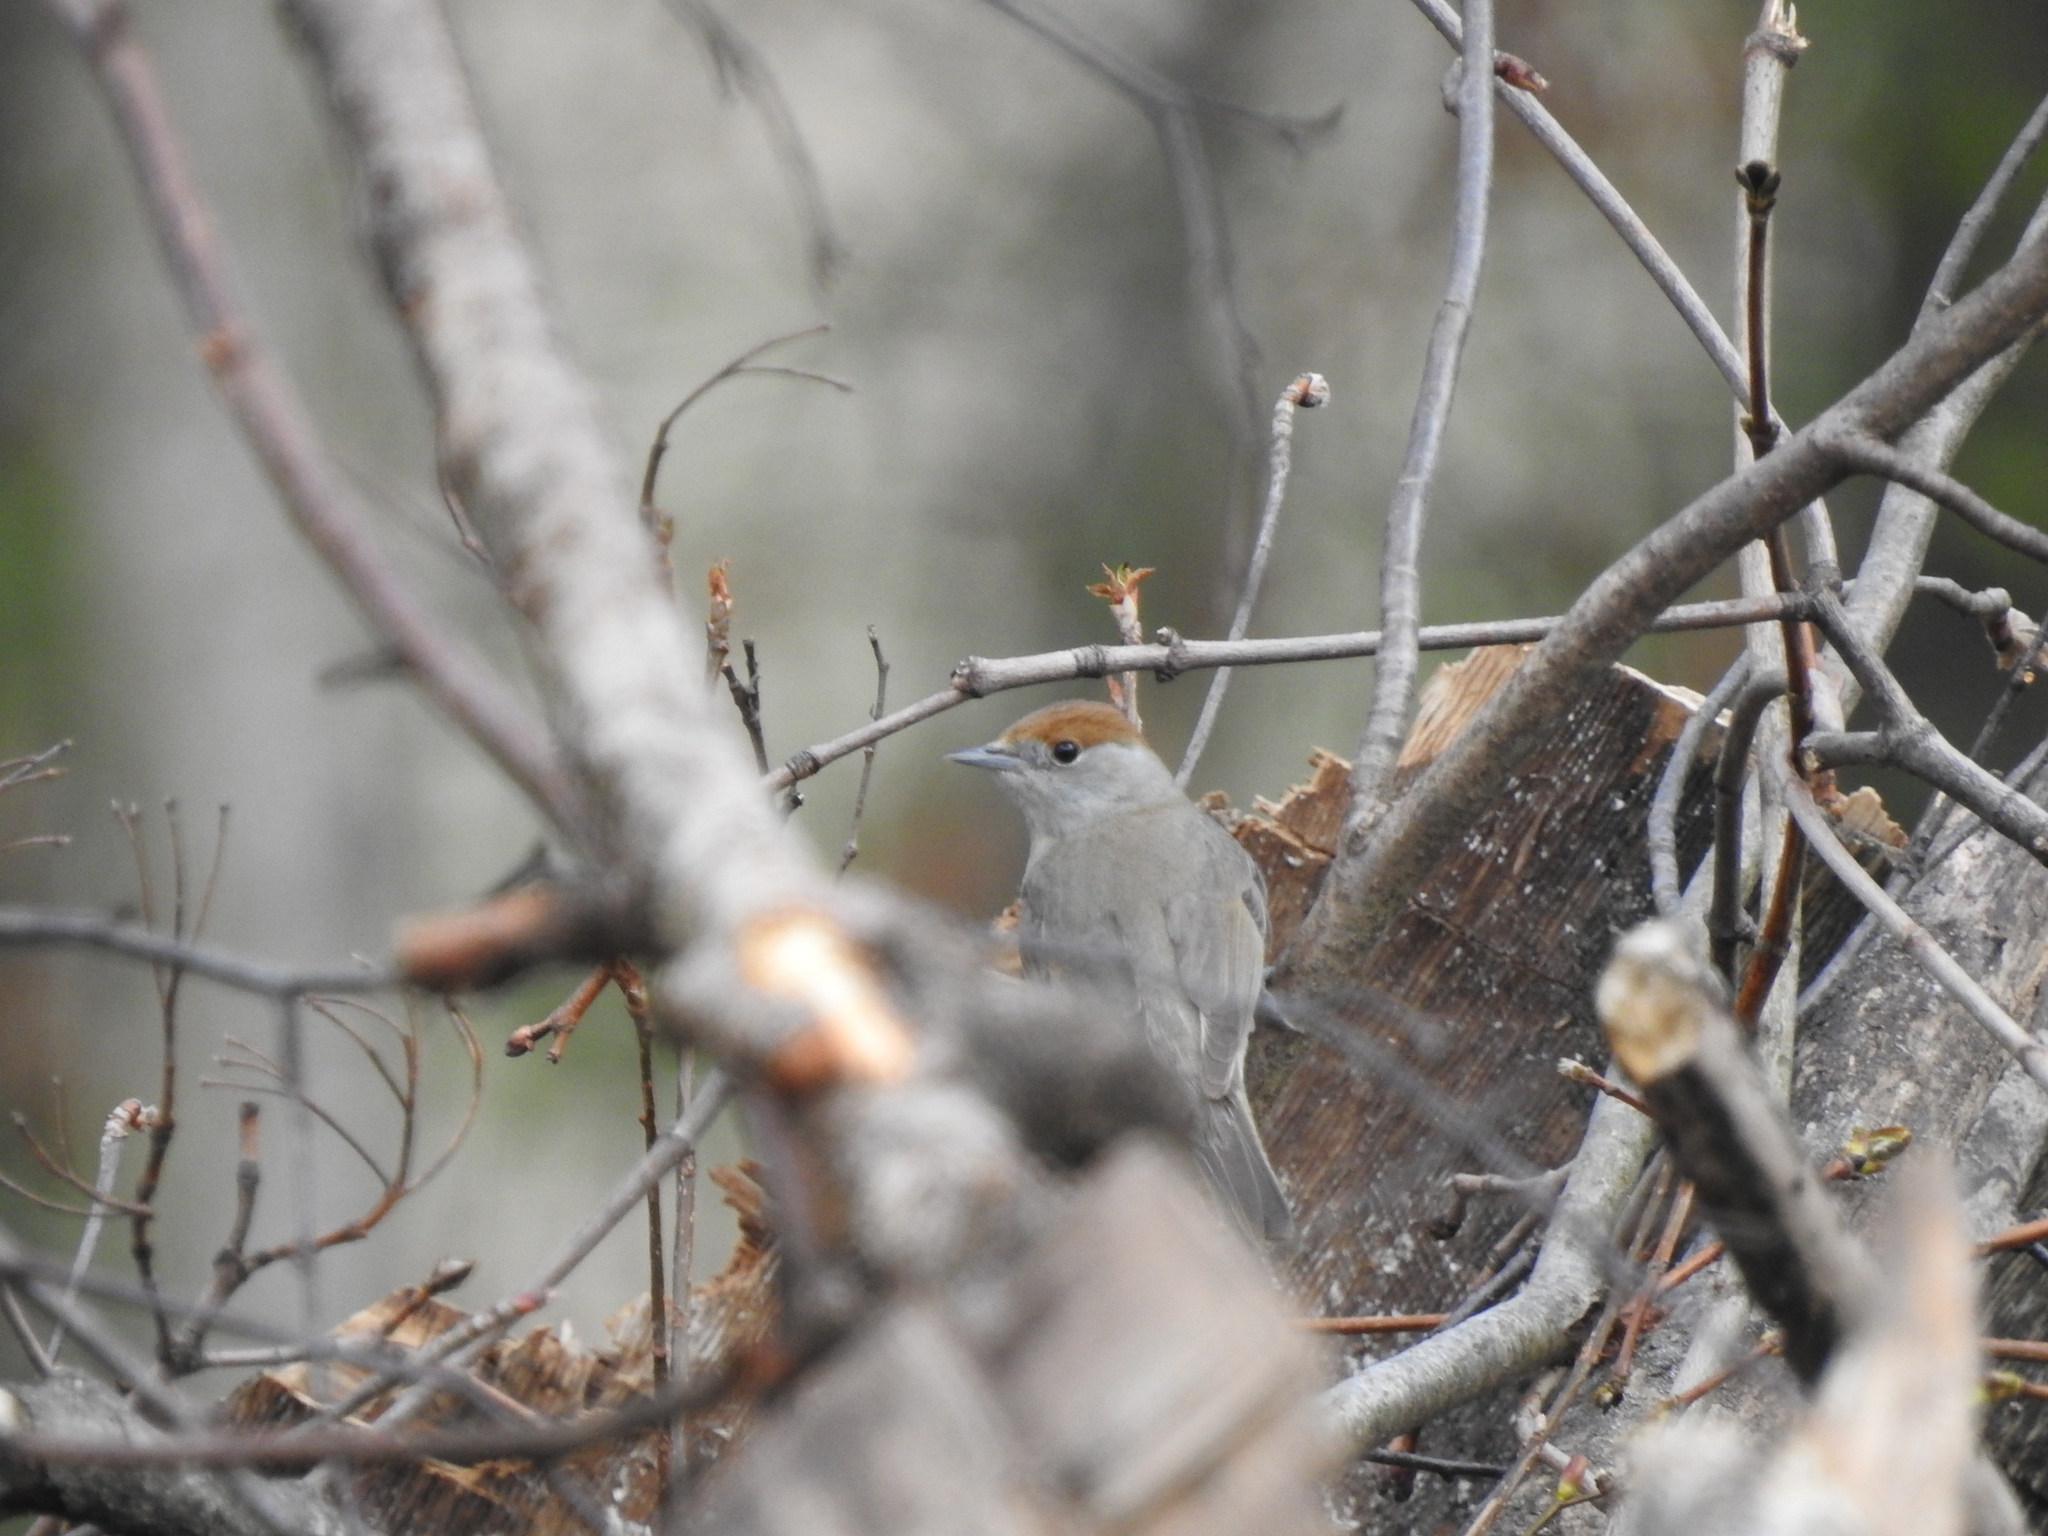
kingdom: Animalia
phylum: Chordata
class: Aves
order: Passeriformes
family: Sylviidae
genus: Sylvia
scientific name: Sylvia atricapilla
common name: Eurasian blackcap
